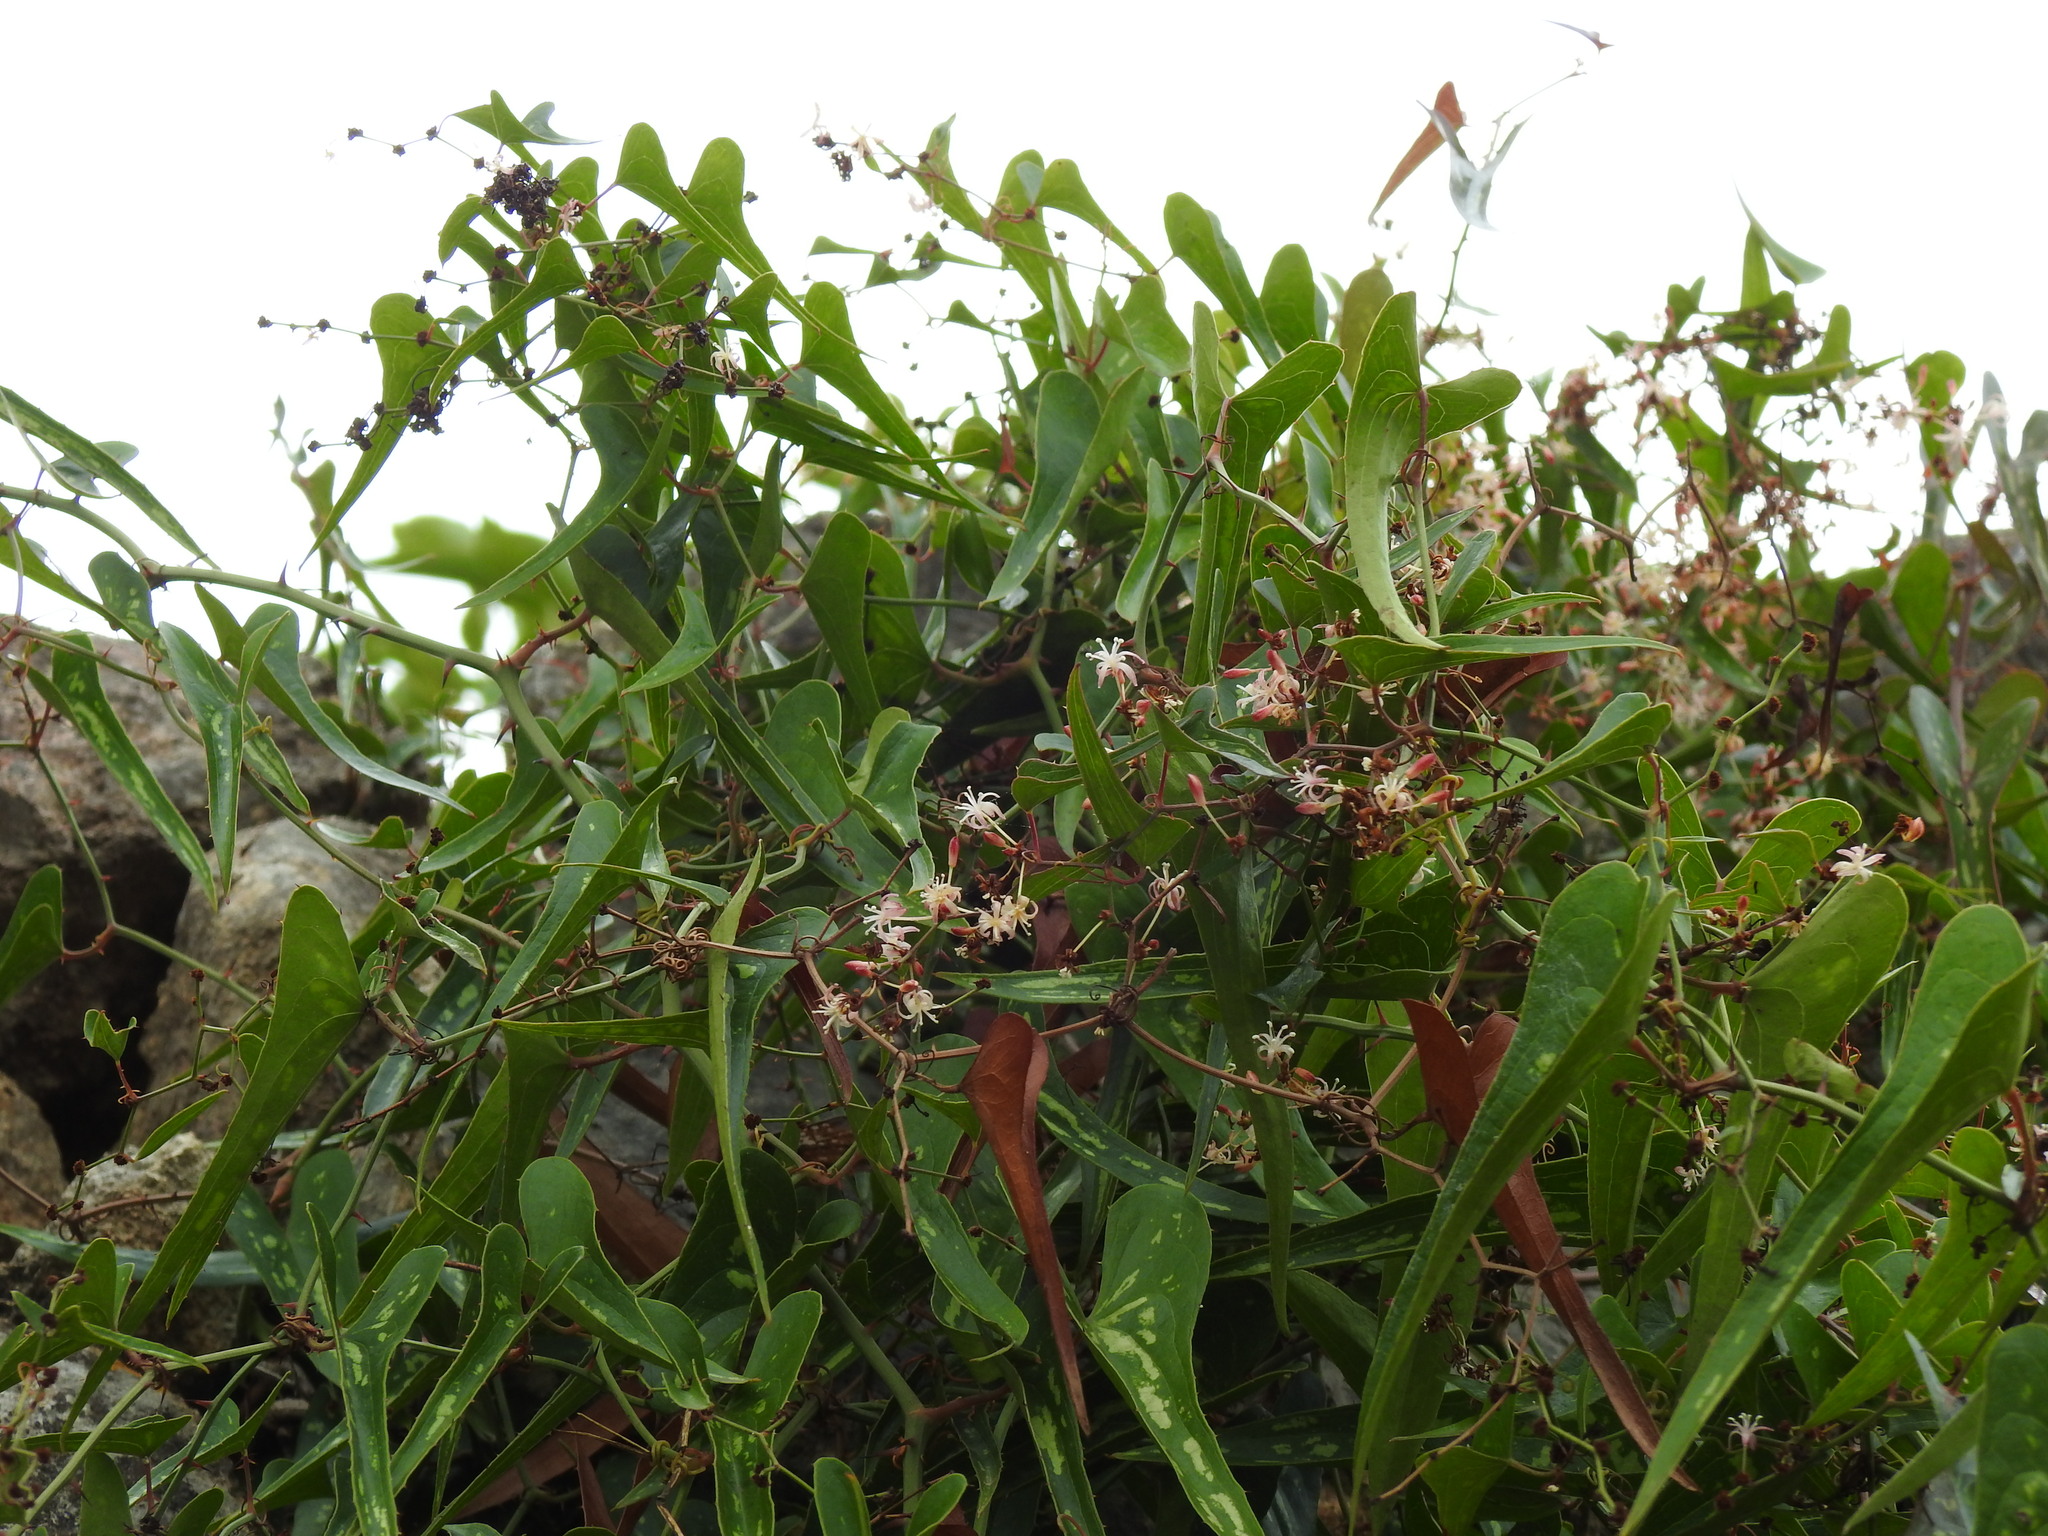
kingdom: Plantae
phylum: Tracheophyta
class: Liliopsida
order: Liliales
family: Smilacaceae
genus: Smilax
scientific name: Smilax aspera
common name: Common smilax
